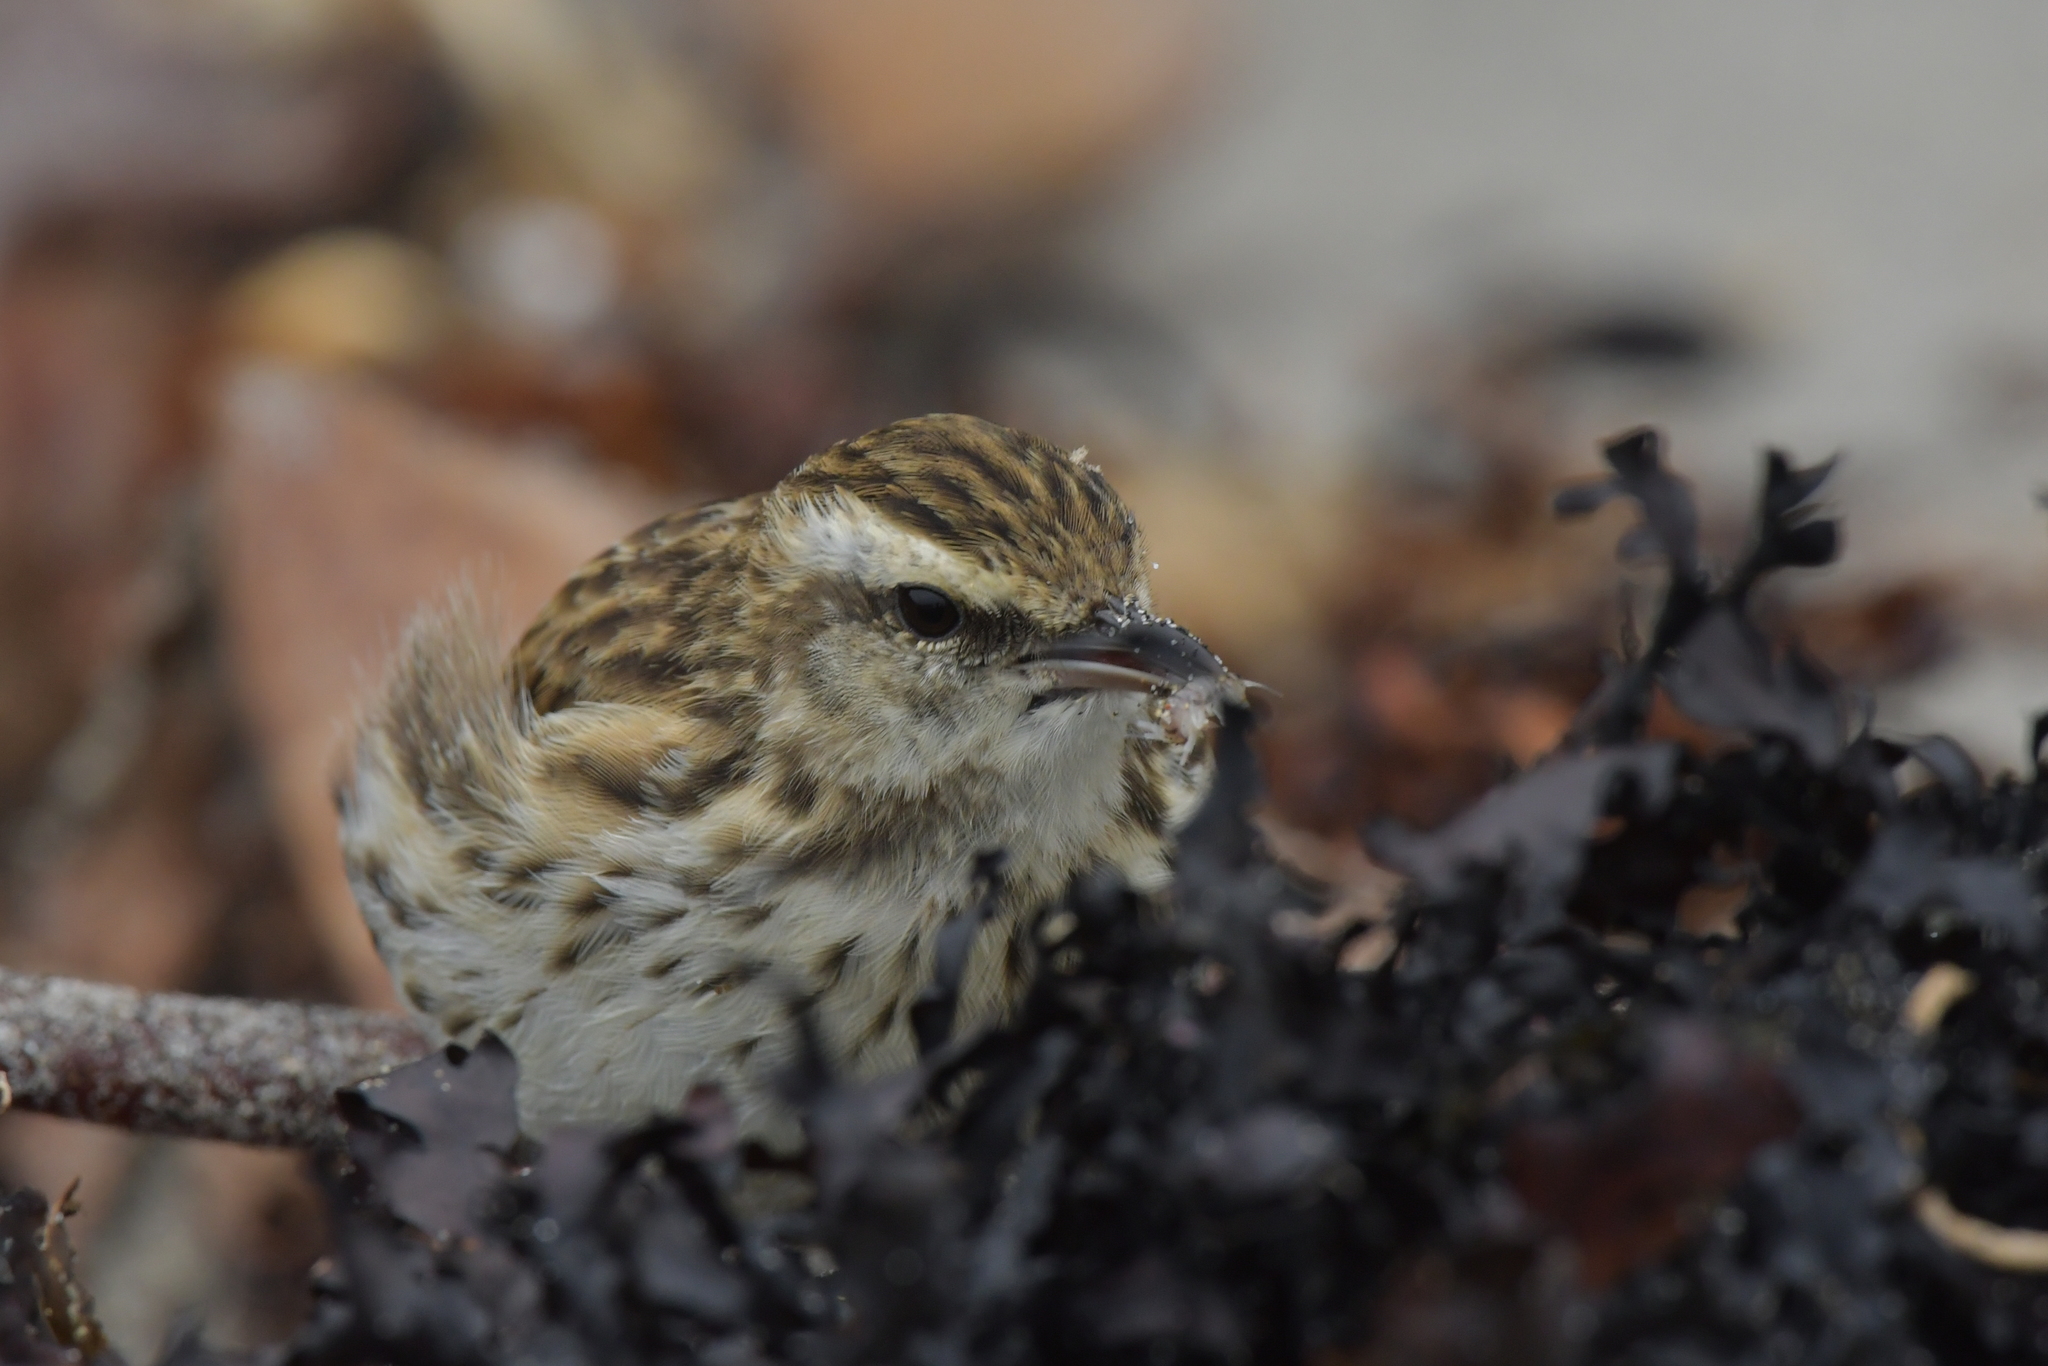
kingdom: Animalia
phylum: Chordata
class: Aves
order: Passeriformes
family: Motacillidae
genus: Anthus
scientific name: Anthus novaeseelandiae
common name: New zealand pipit
